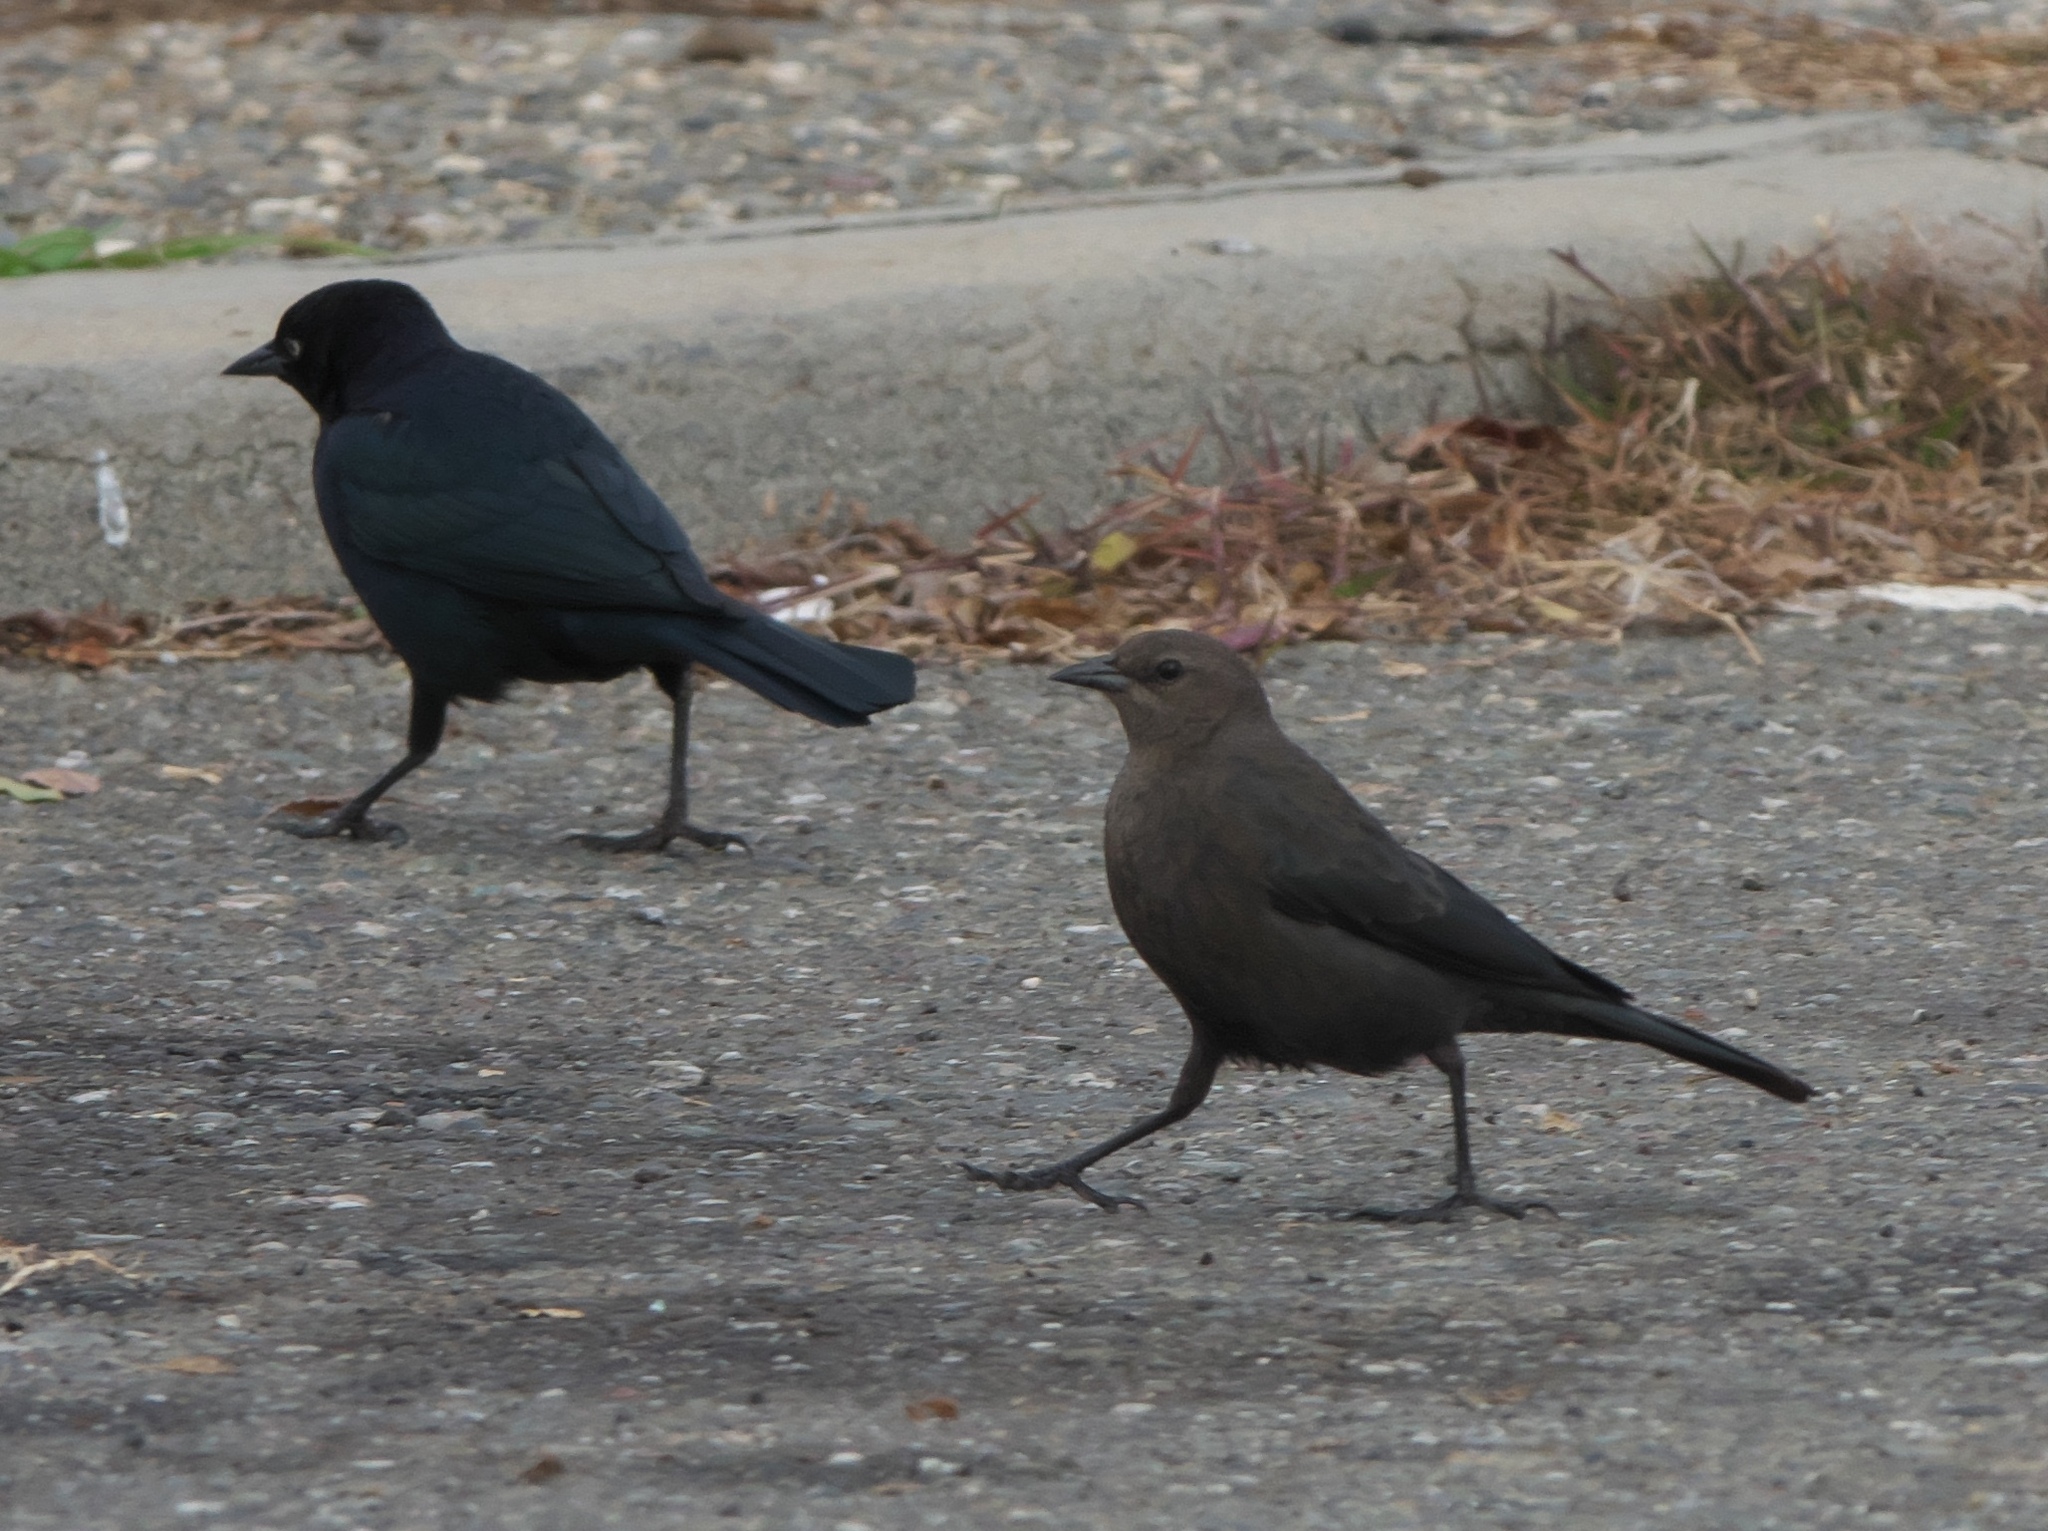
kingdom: Animalia
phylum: Chordata
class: Aves
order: Passeriformes
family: Icteridae
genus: Euphagus
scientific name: Euphagus cyanocephalus
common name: Brewer's blackbird
